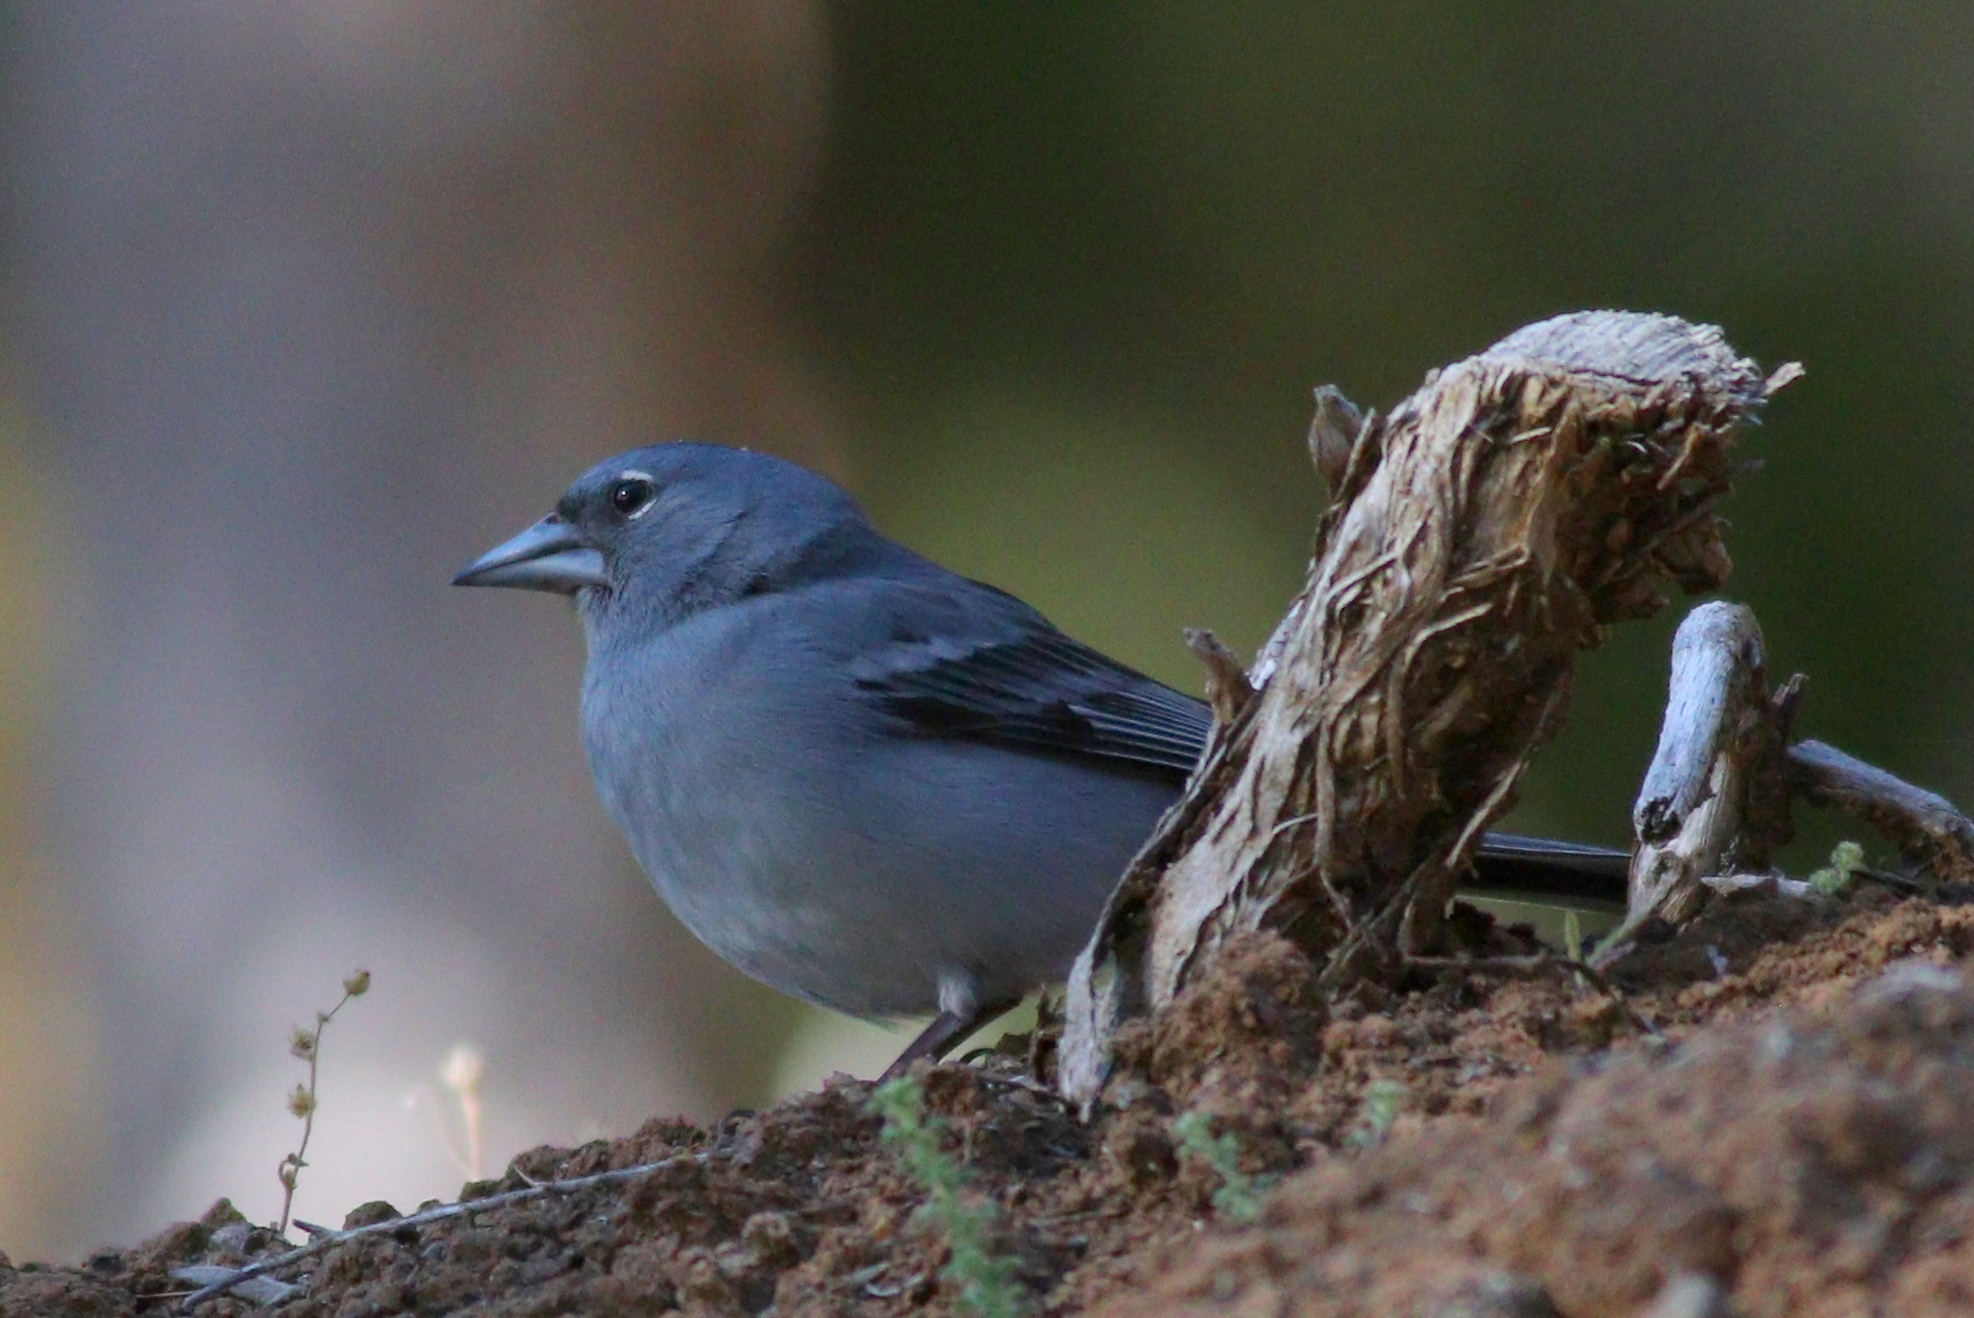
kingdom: Animalia
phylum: Chordata
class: Aves
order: Passeriformes
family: Fringillidae
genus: Fringilla
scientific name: Fringilla teydea
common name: Blue chaffinch
